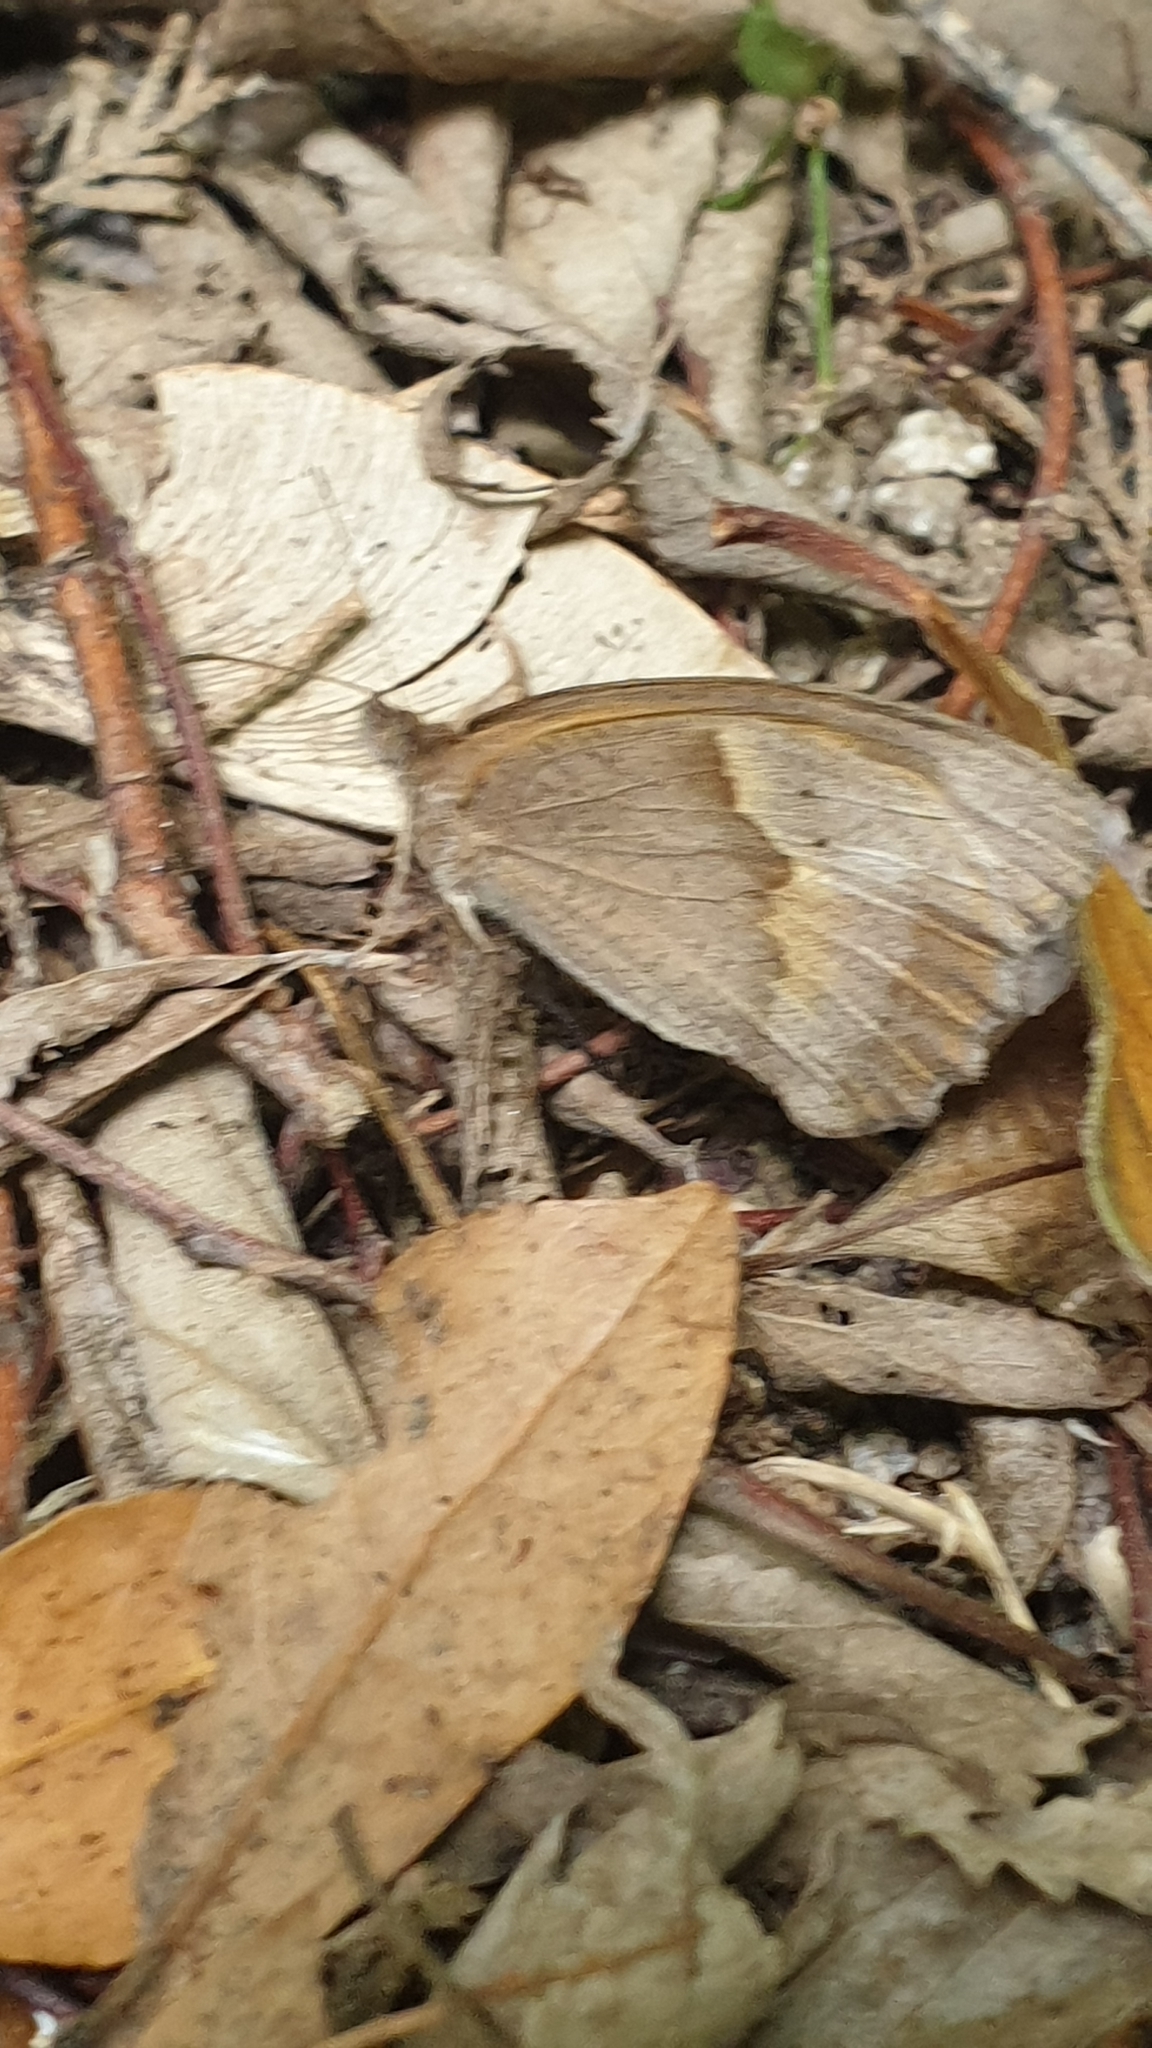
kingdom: Animalia
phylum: Arthropoda
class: Insecta
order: Lepidoptera
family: Nymphalidae
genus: Maniola
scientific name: Maniola jurtina
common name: Meadow brown
